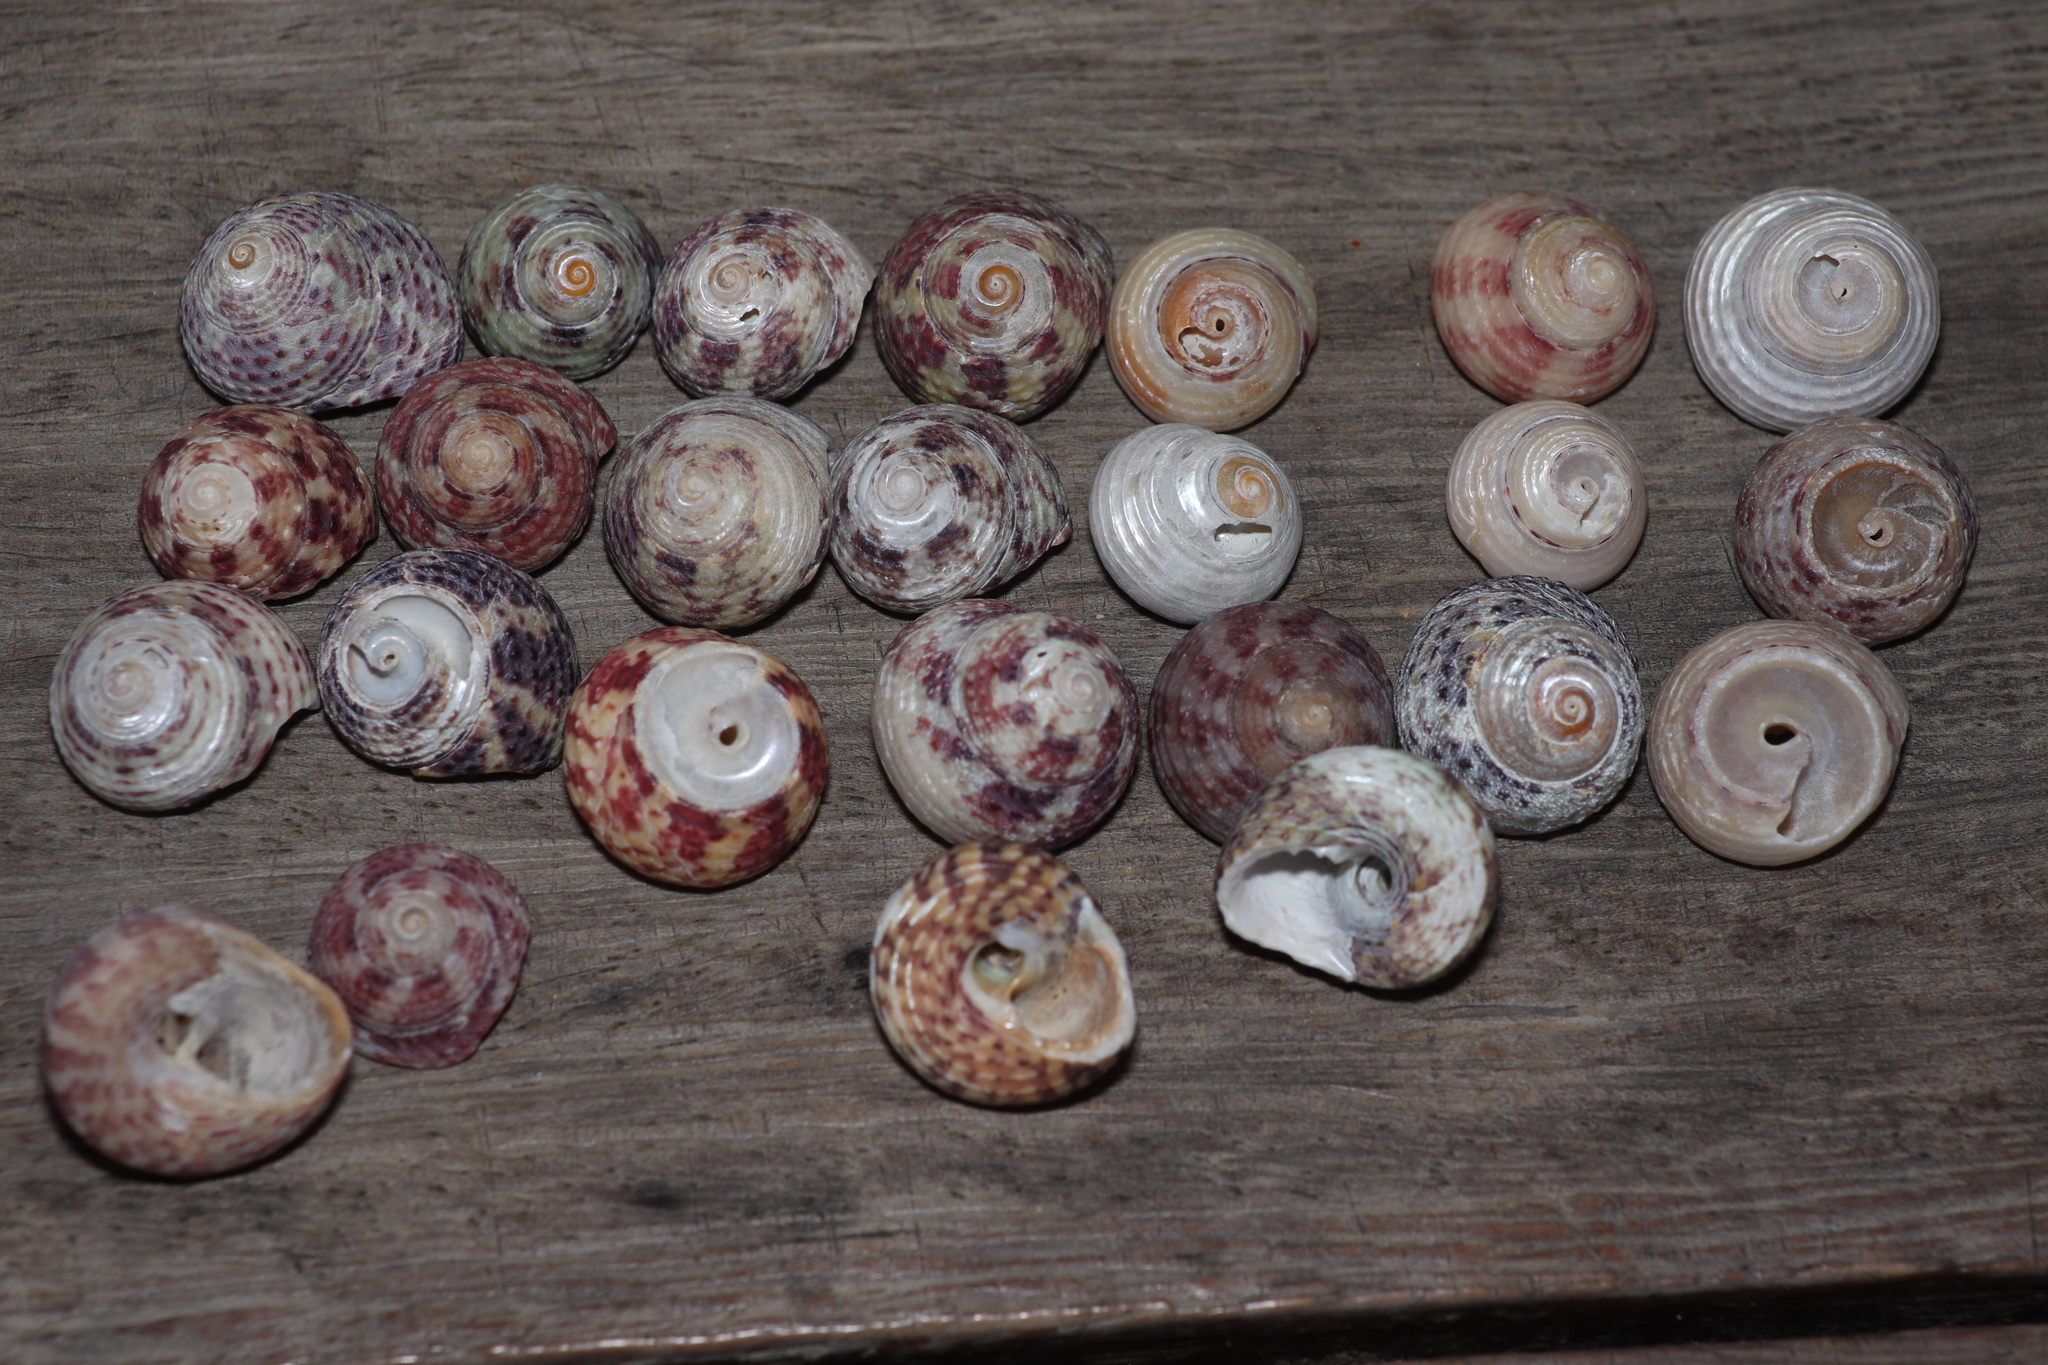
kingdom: Animalia
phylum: Mollusca
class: Gastropoda
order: Trochida
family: Tegulidae
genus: Agathistoma
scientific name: Agathistoma viridulum
